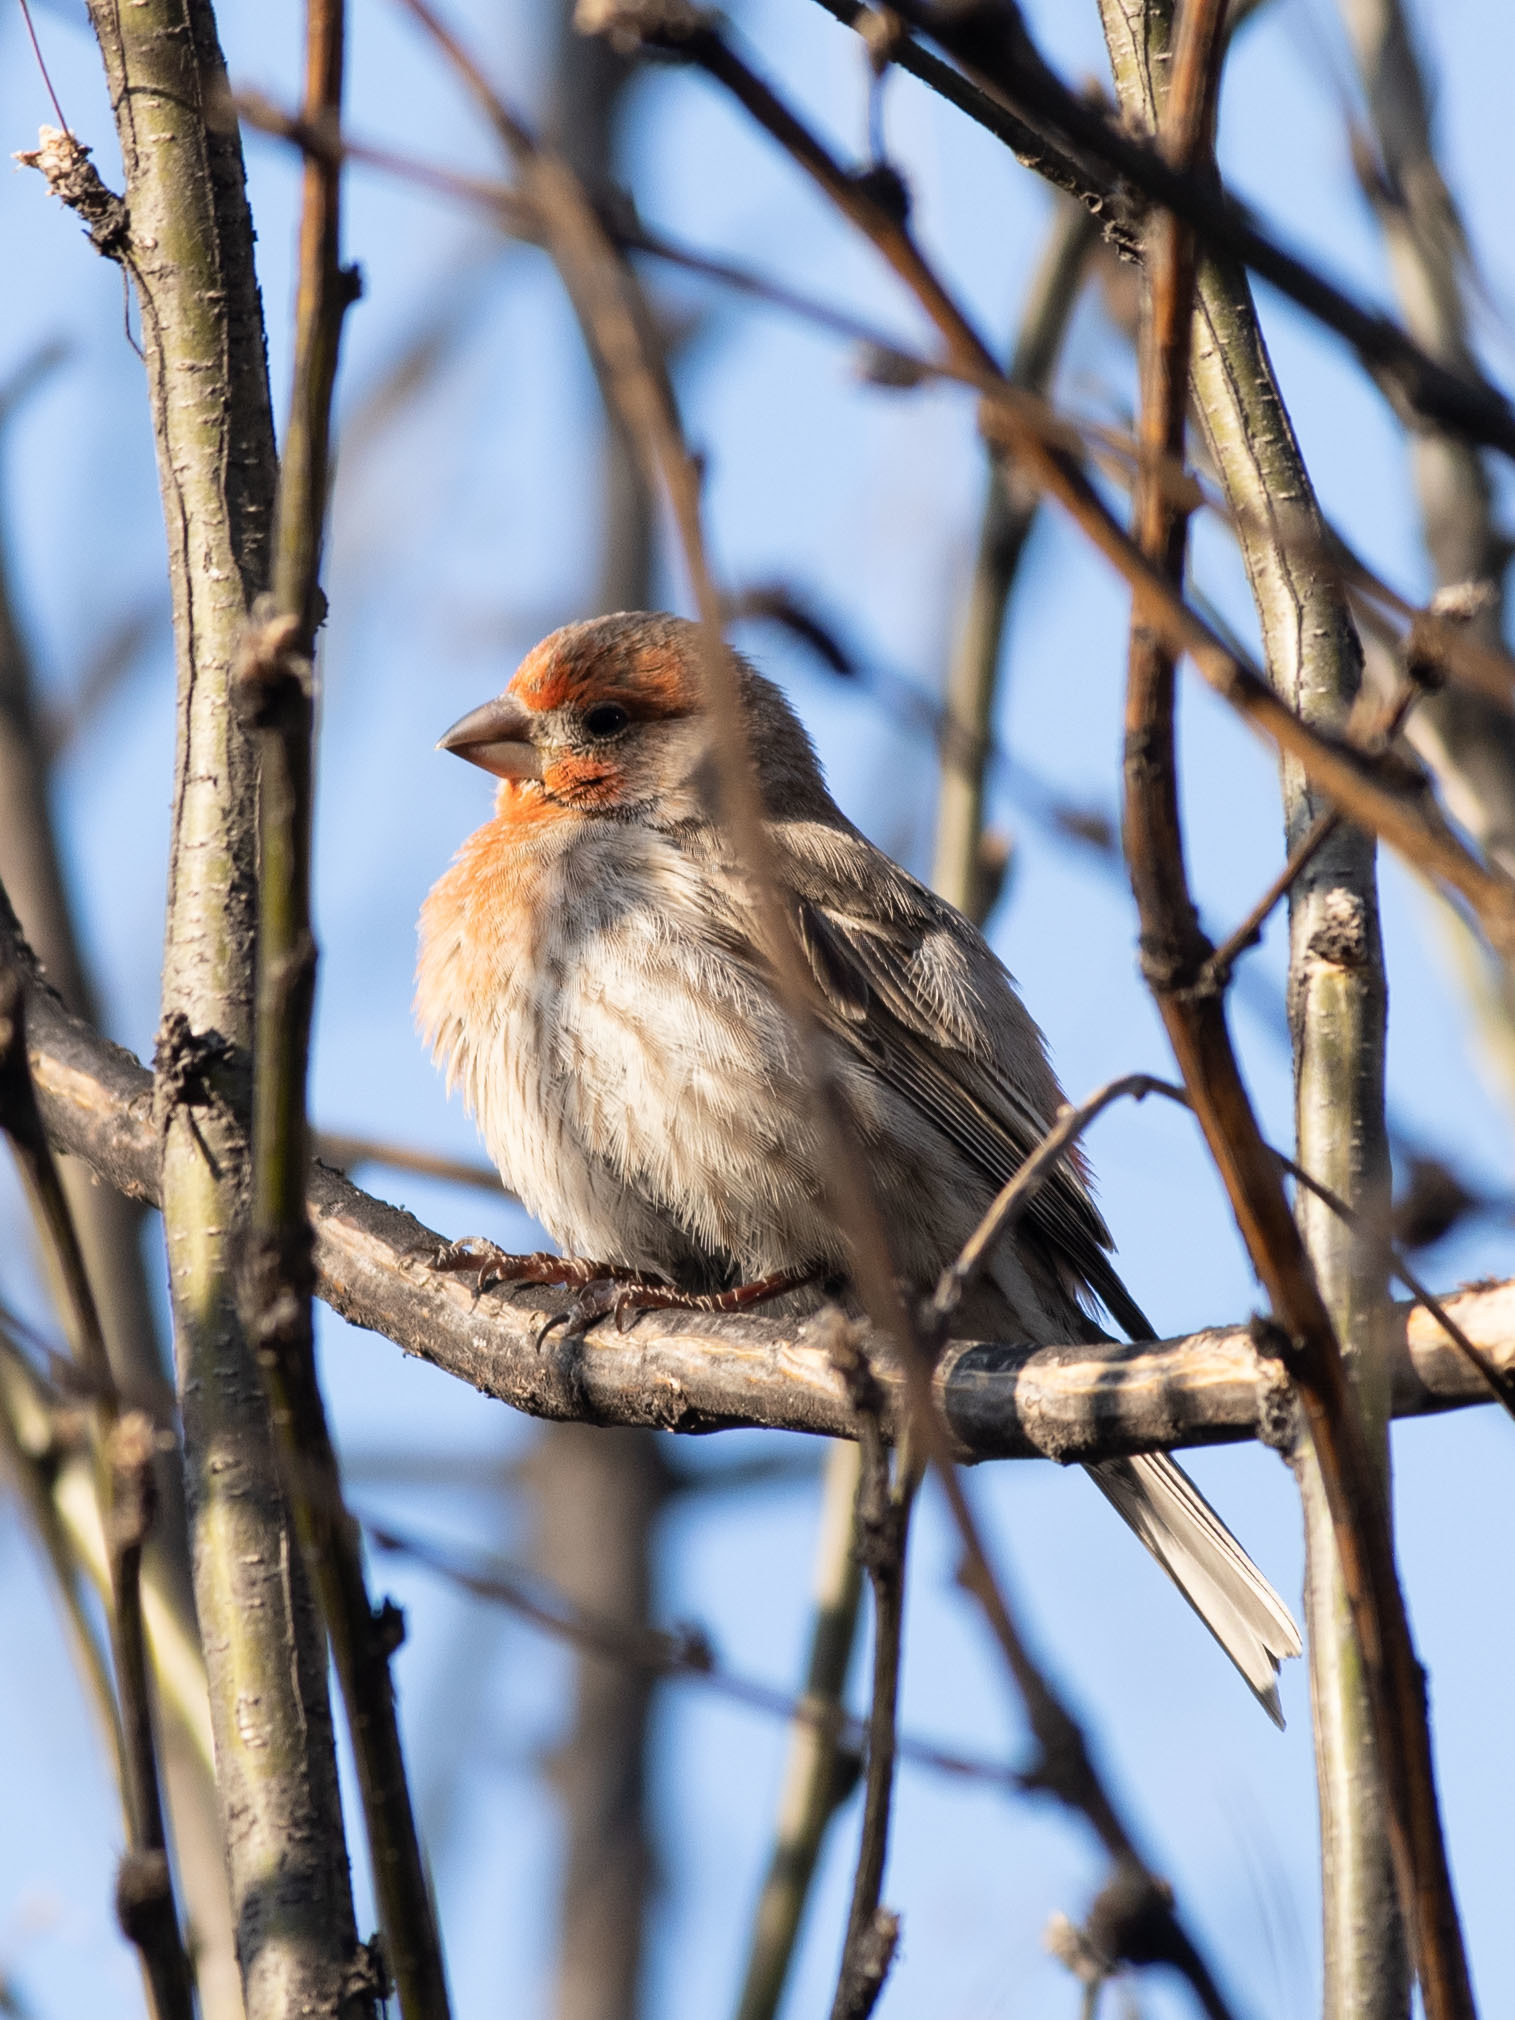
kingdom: Animalia
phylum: Chordata
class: Aves
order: Passeriformes
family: Fringillidae
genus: Haemorhous
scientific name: Haemorhous mexicanus
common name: House finch
